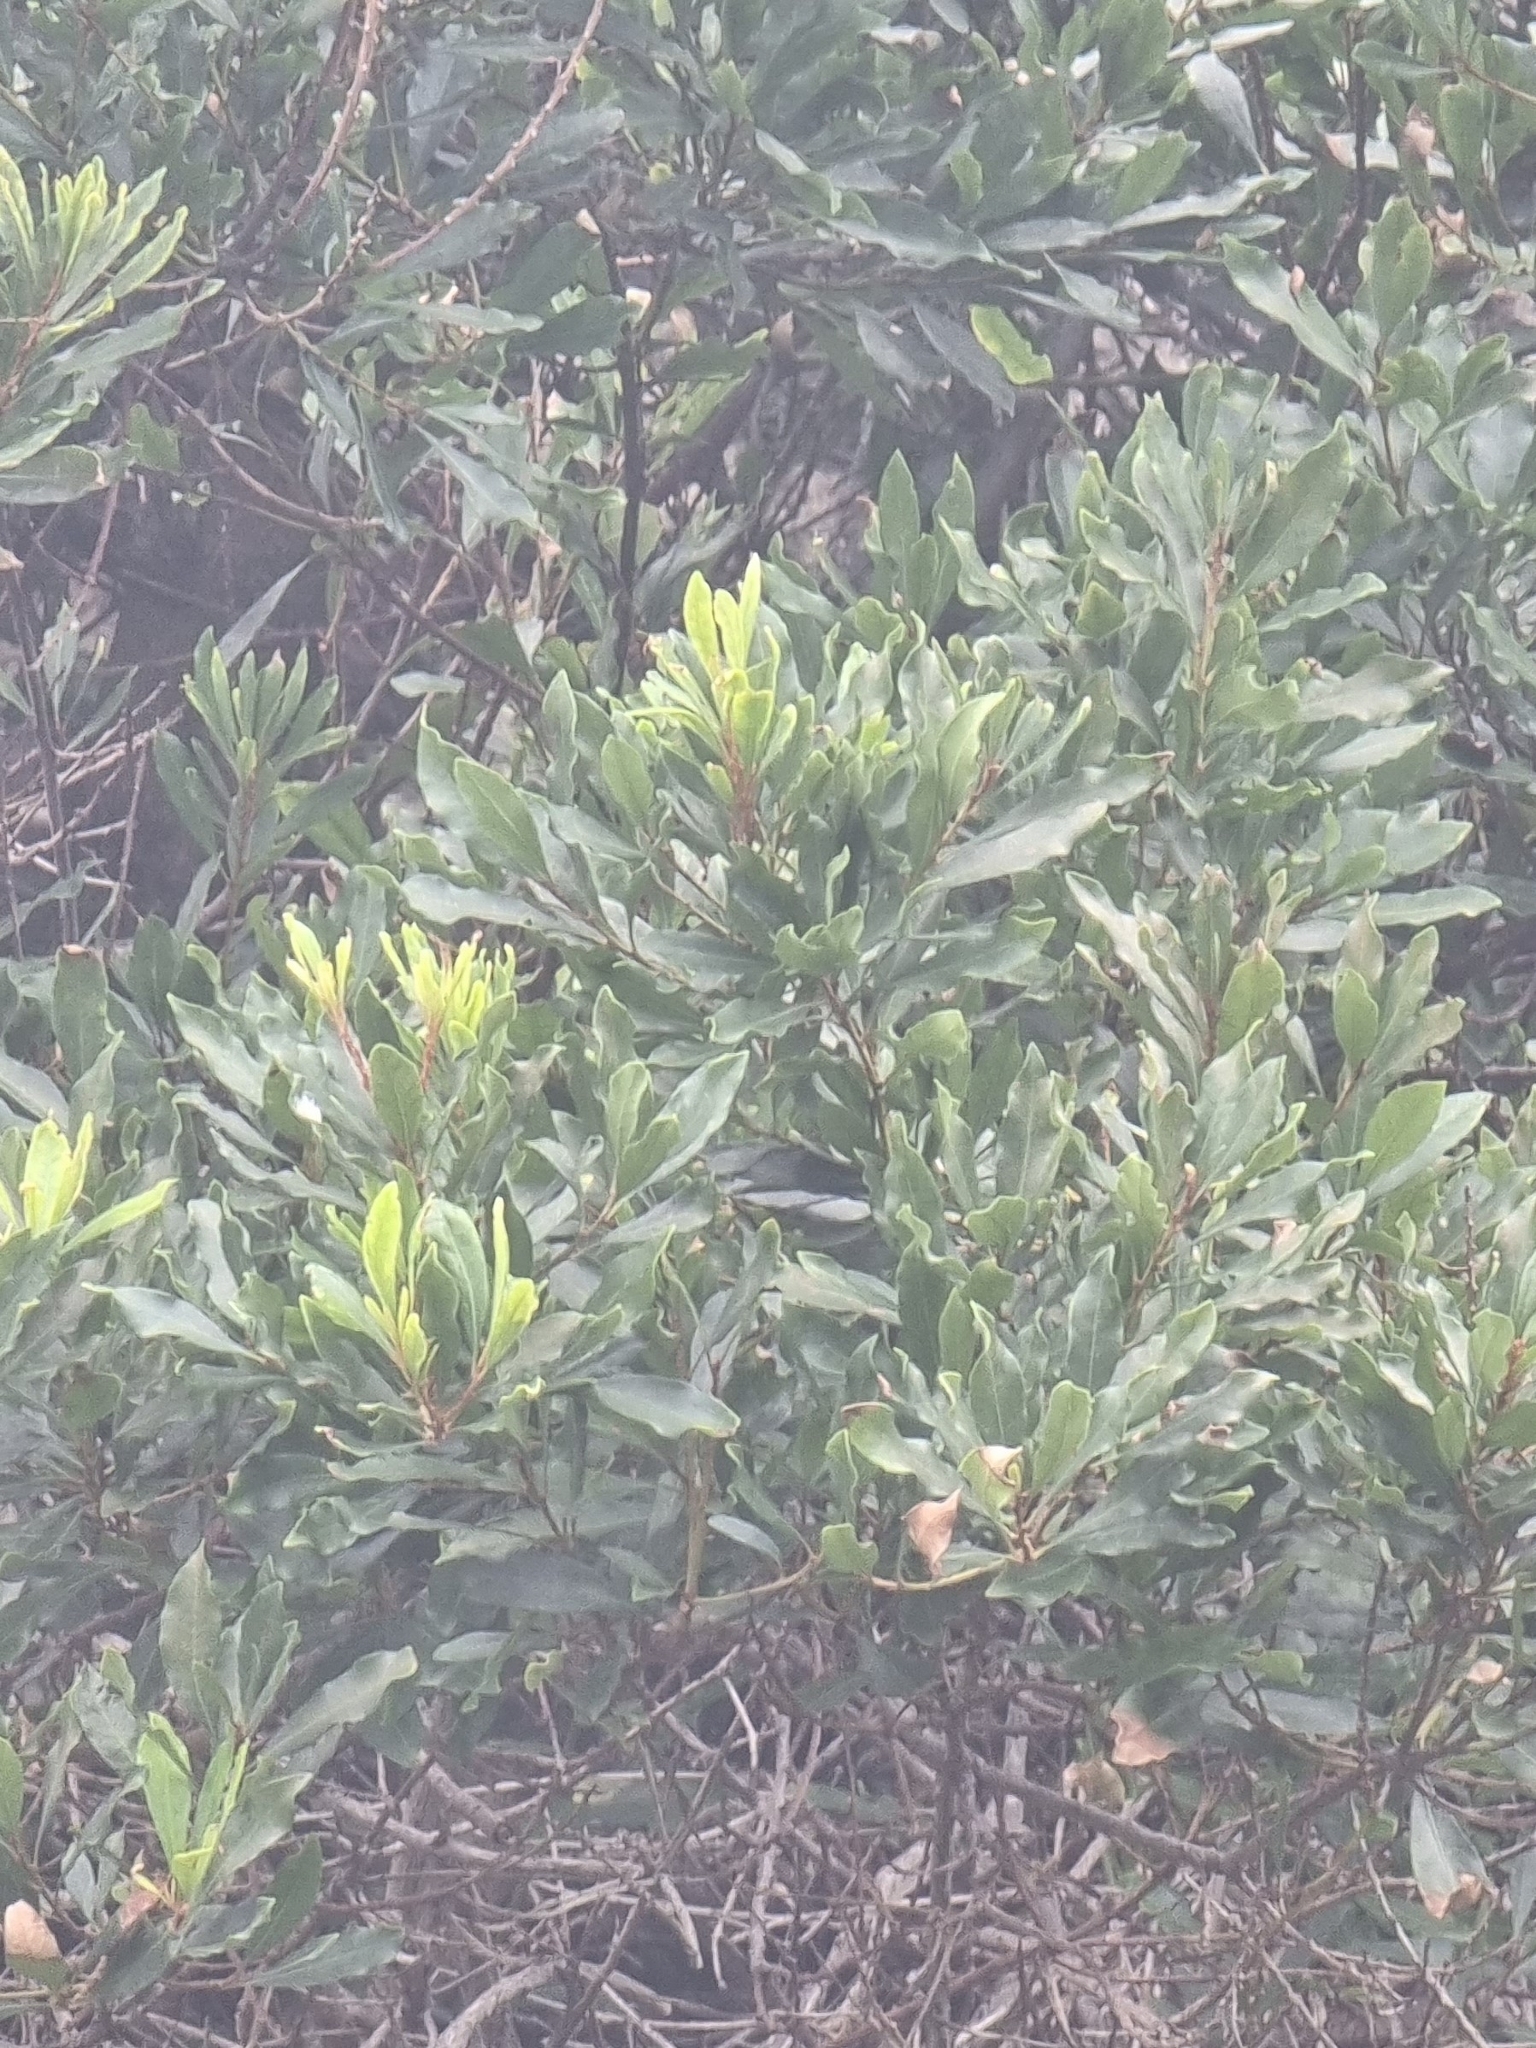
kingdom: Plantae
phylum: Tracheophyta
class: Magnoliopsida
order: Fagales
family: Myricaceae
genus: Morella
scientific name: Morella faya
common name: Firetree
